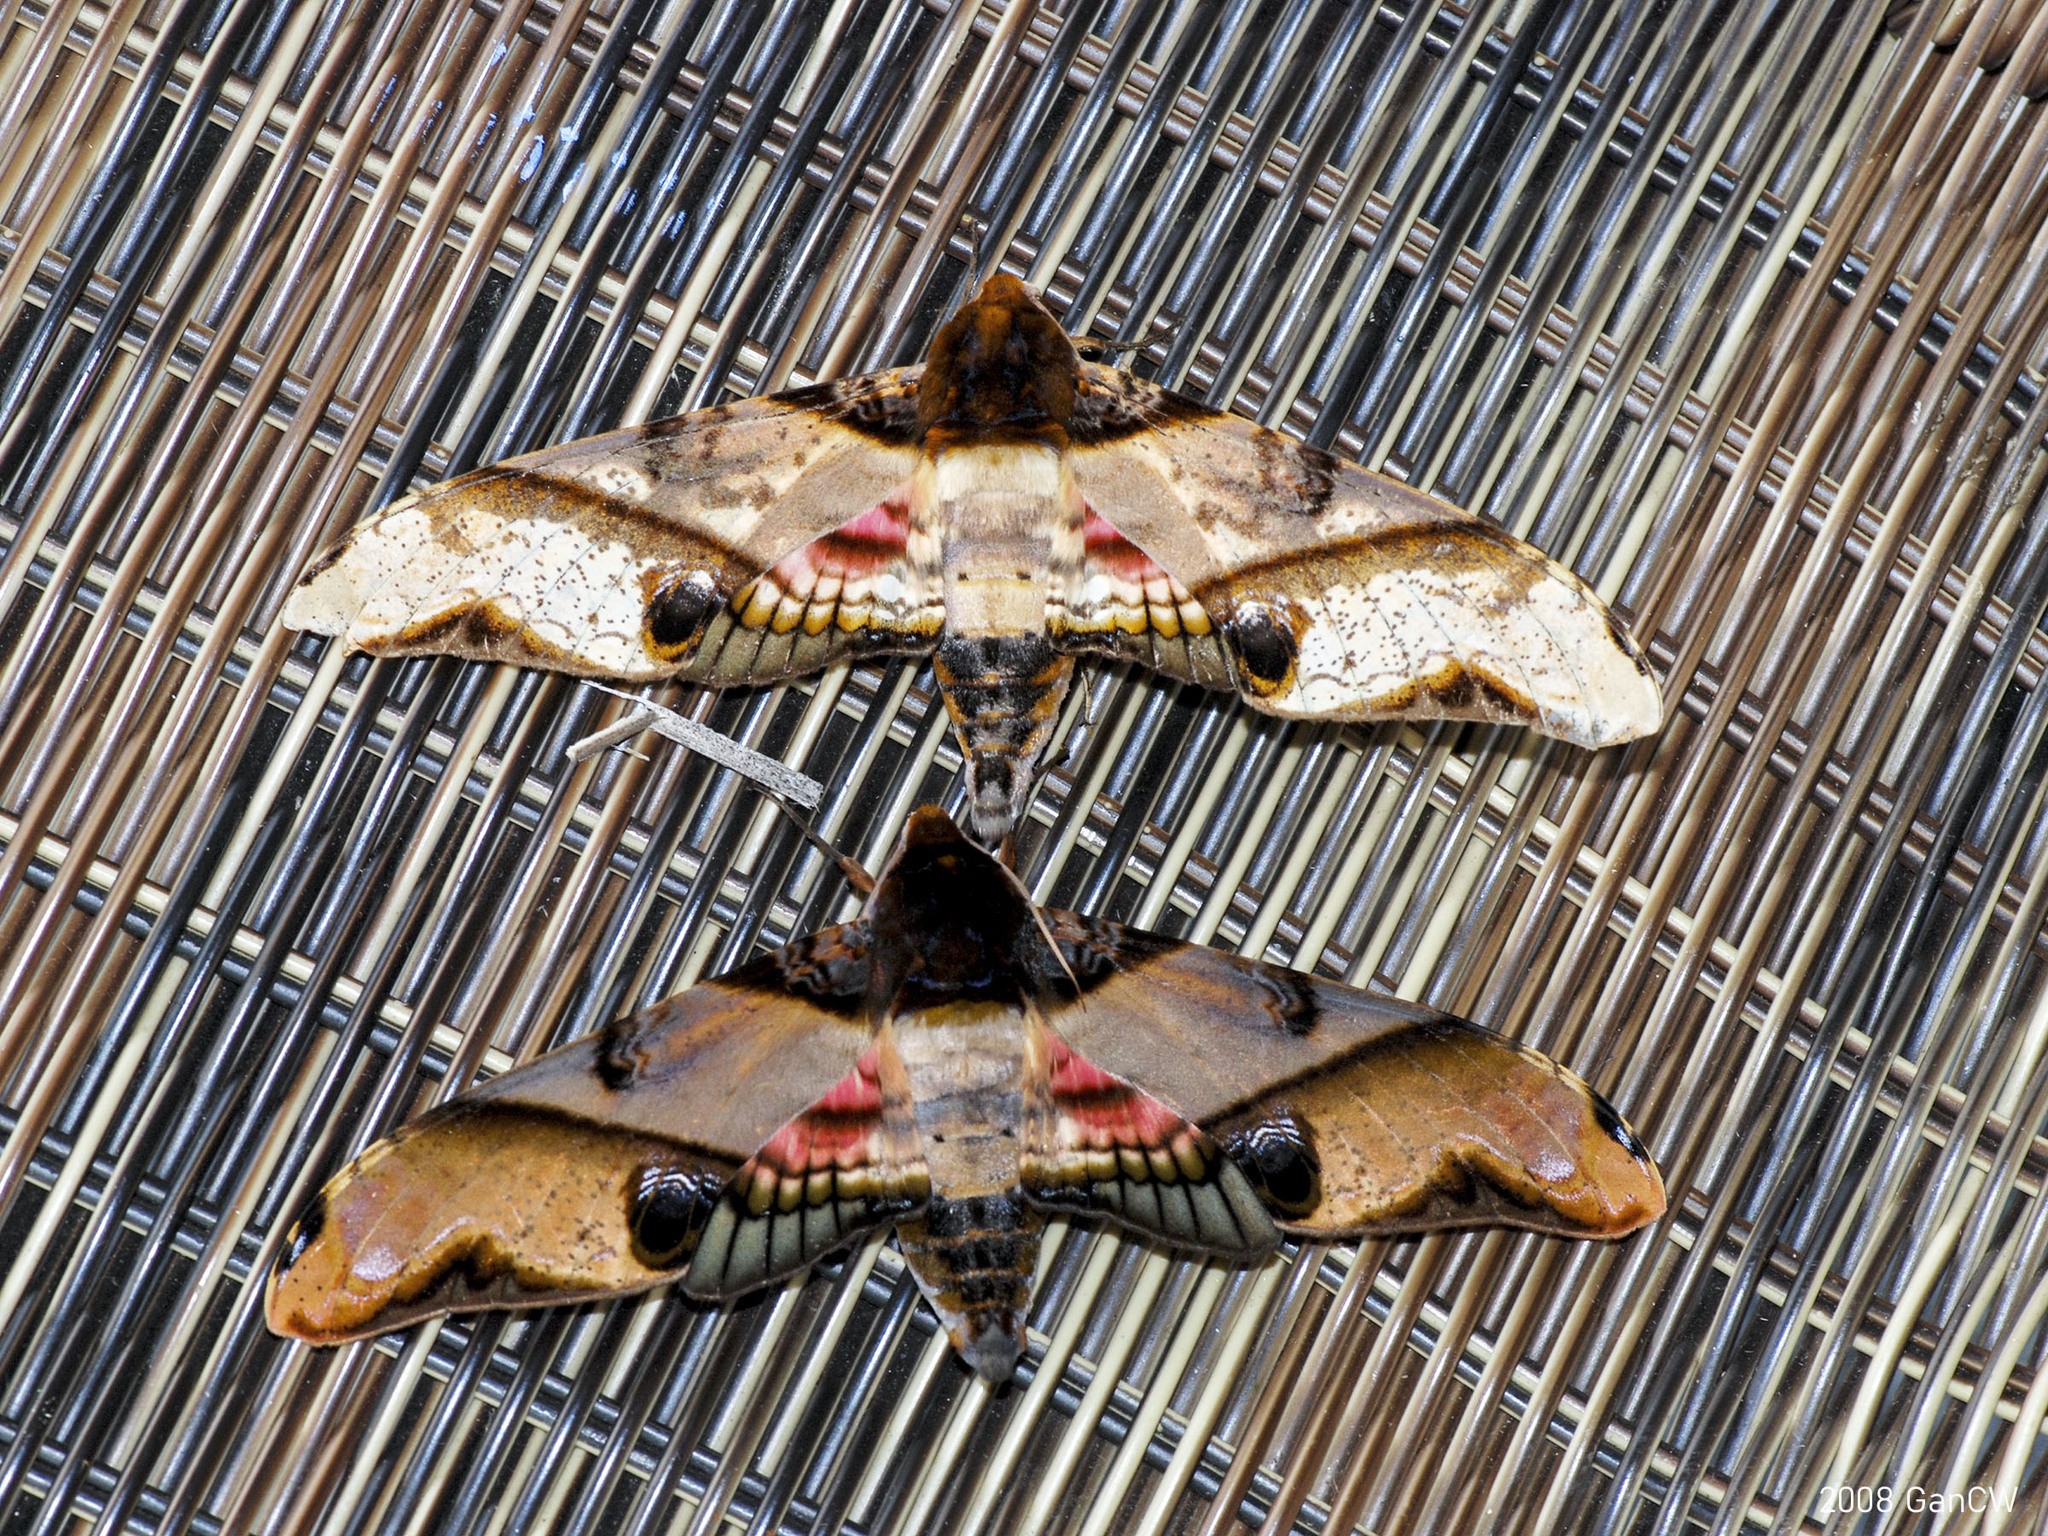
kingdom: Animalia
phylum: Arthropoda
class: Insecta
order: Lepidoptera
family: Sphingidae
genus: Amplypterus
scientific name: Amplypterus panopus
